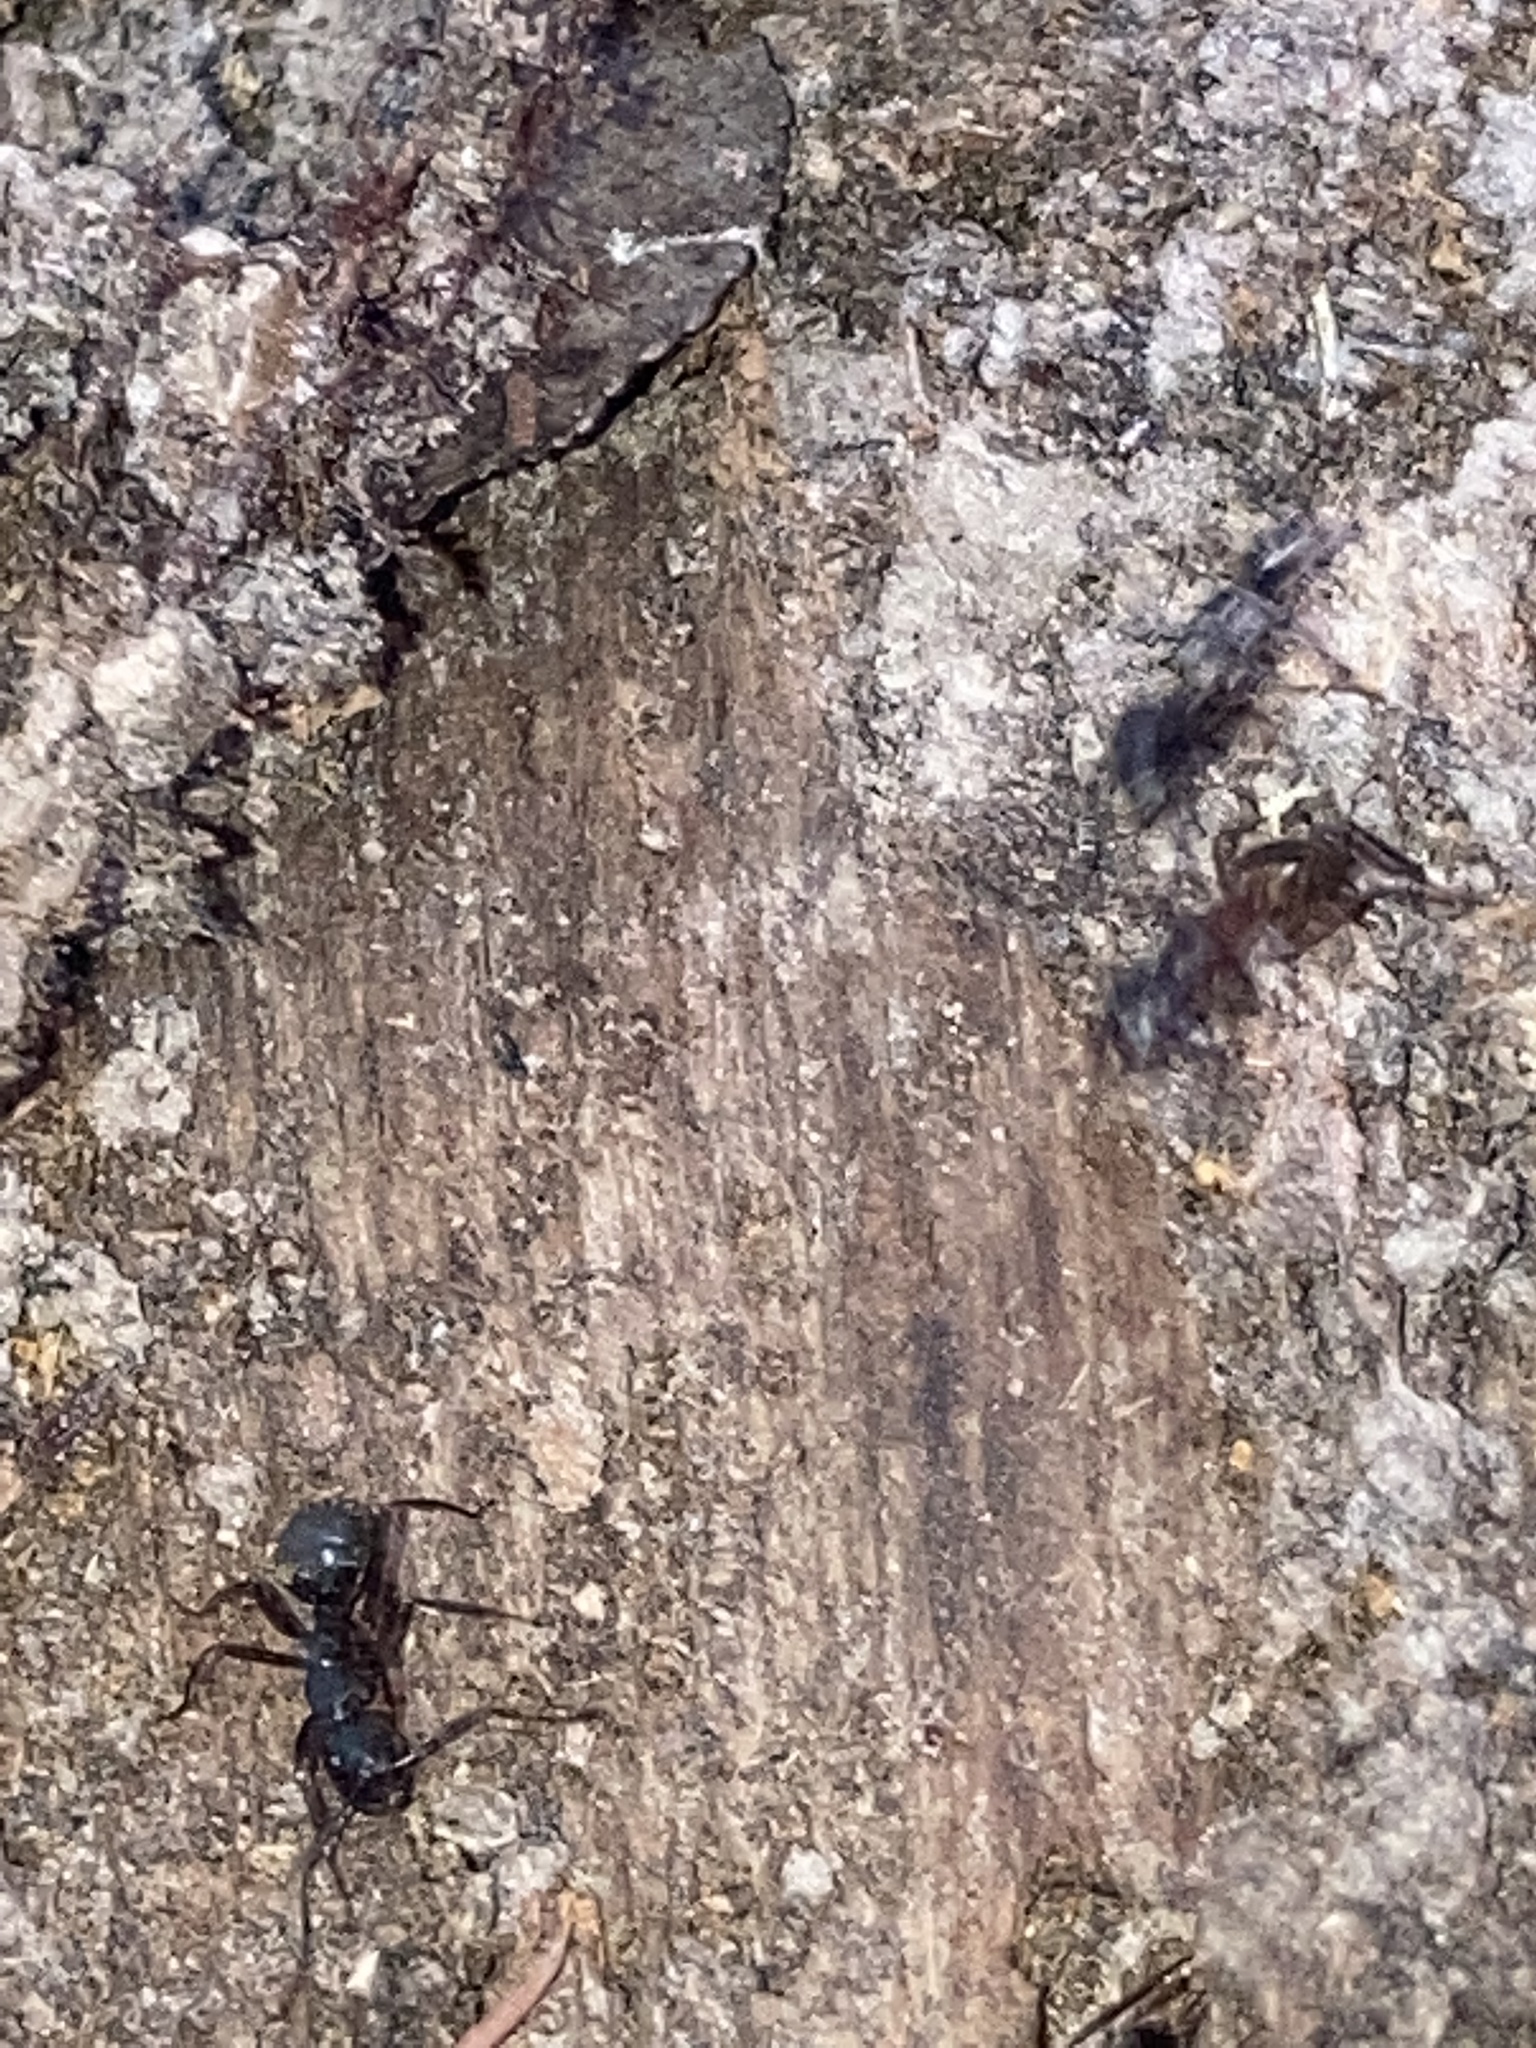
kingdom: Animalia
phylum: Arthropoda
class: Insecta
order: Hymenoptera
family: Formicidae
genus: Camponotus
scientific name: Camponotus chromaiodes
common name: Red carpenter ant
